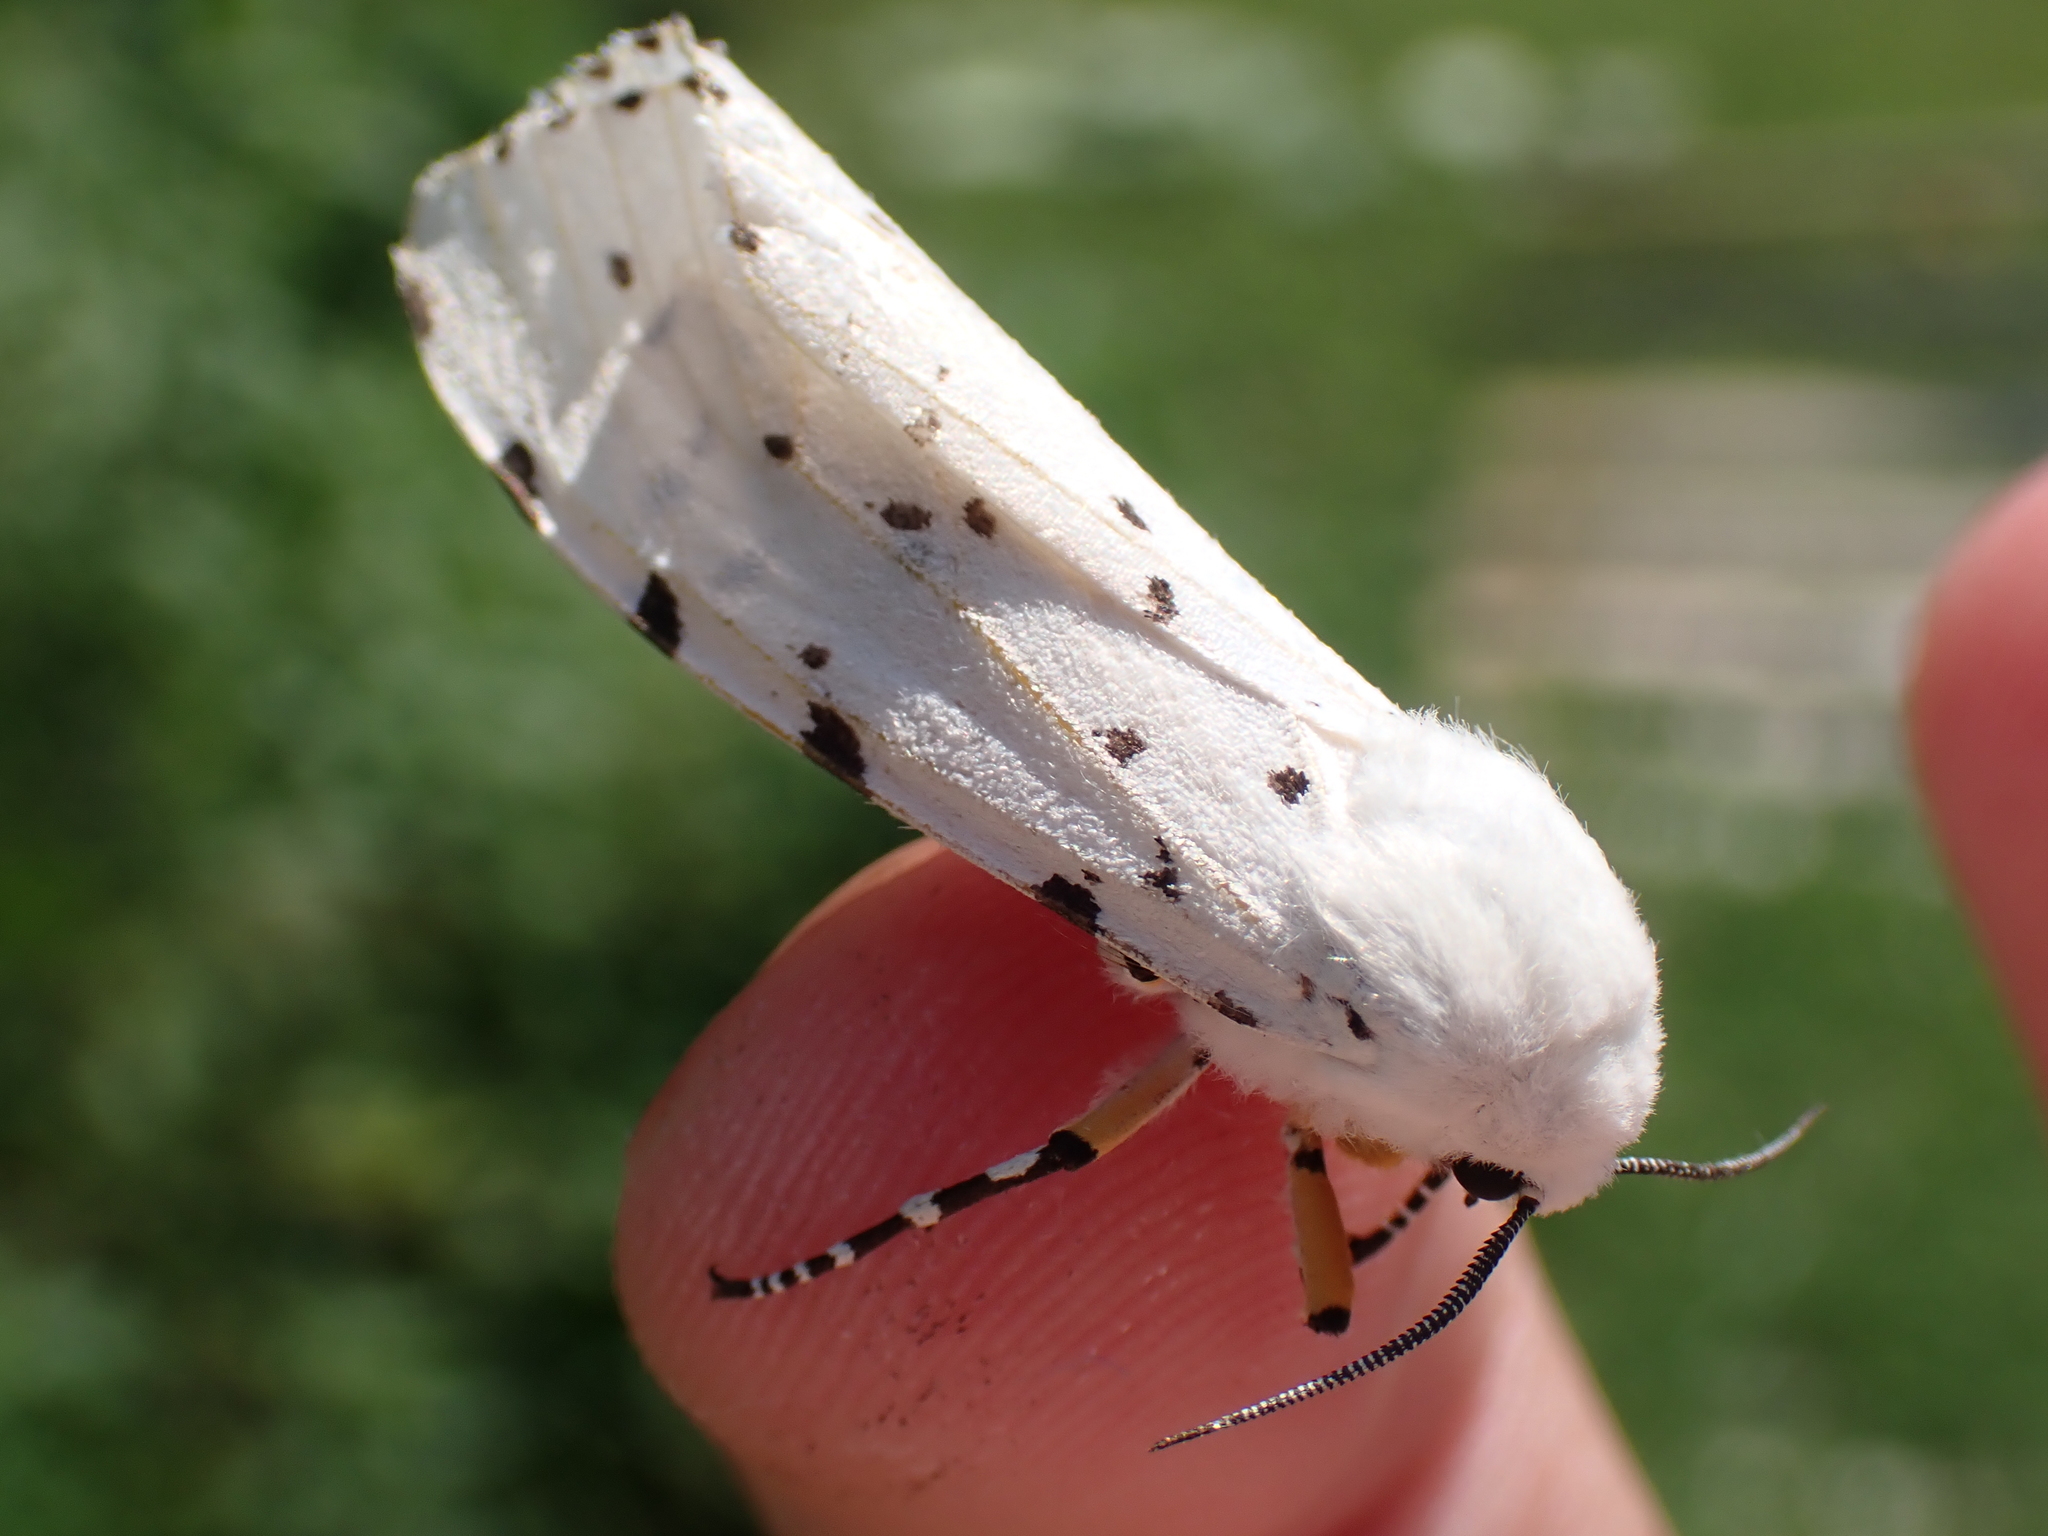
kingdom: Animalia
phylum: Arthropoda
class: Insecta
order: Lepidoptera
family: Erebidae
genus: Estigmene
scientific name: Estigmene acrea
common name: Salt marsh moth
